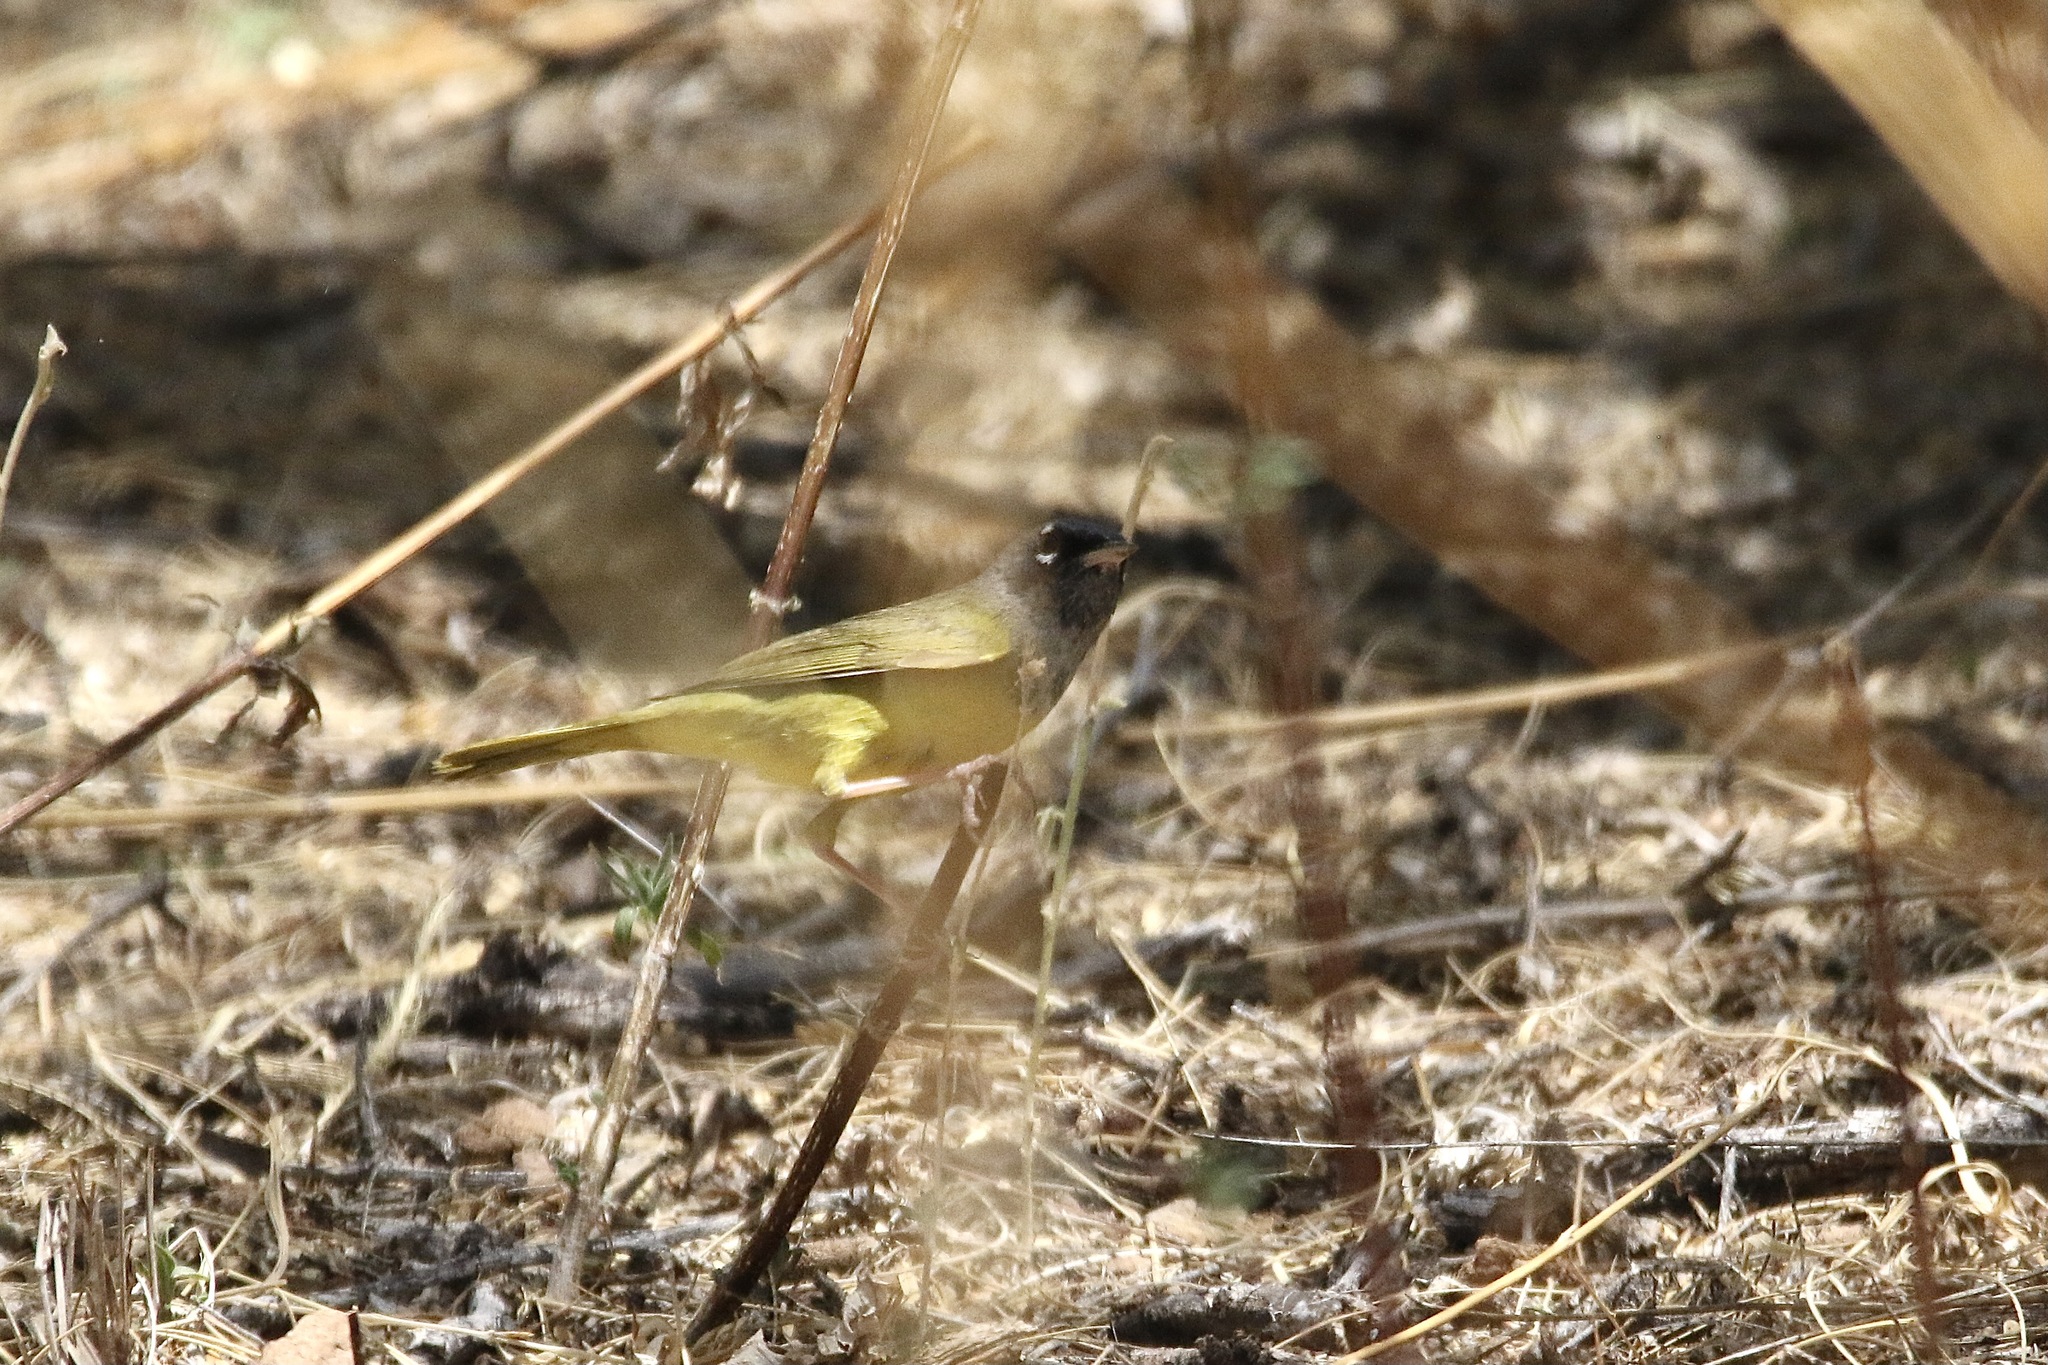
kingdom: Animalia
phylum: Chordata
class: Aves
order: Passeriformes
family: Parulidae
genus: Geothlypis
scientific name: Geothlypis tolmiei
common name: Macgillivray's warbler
